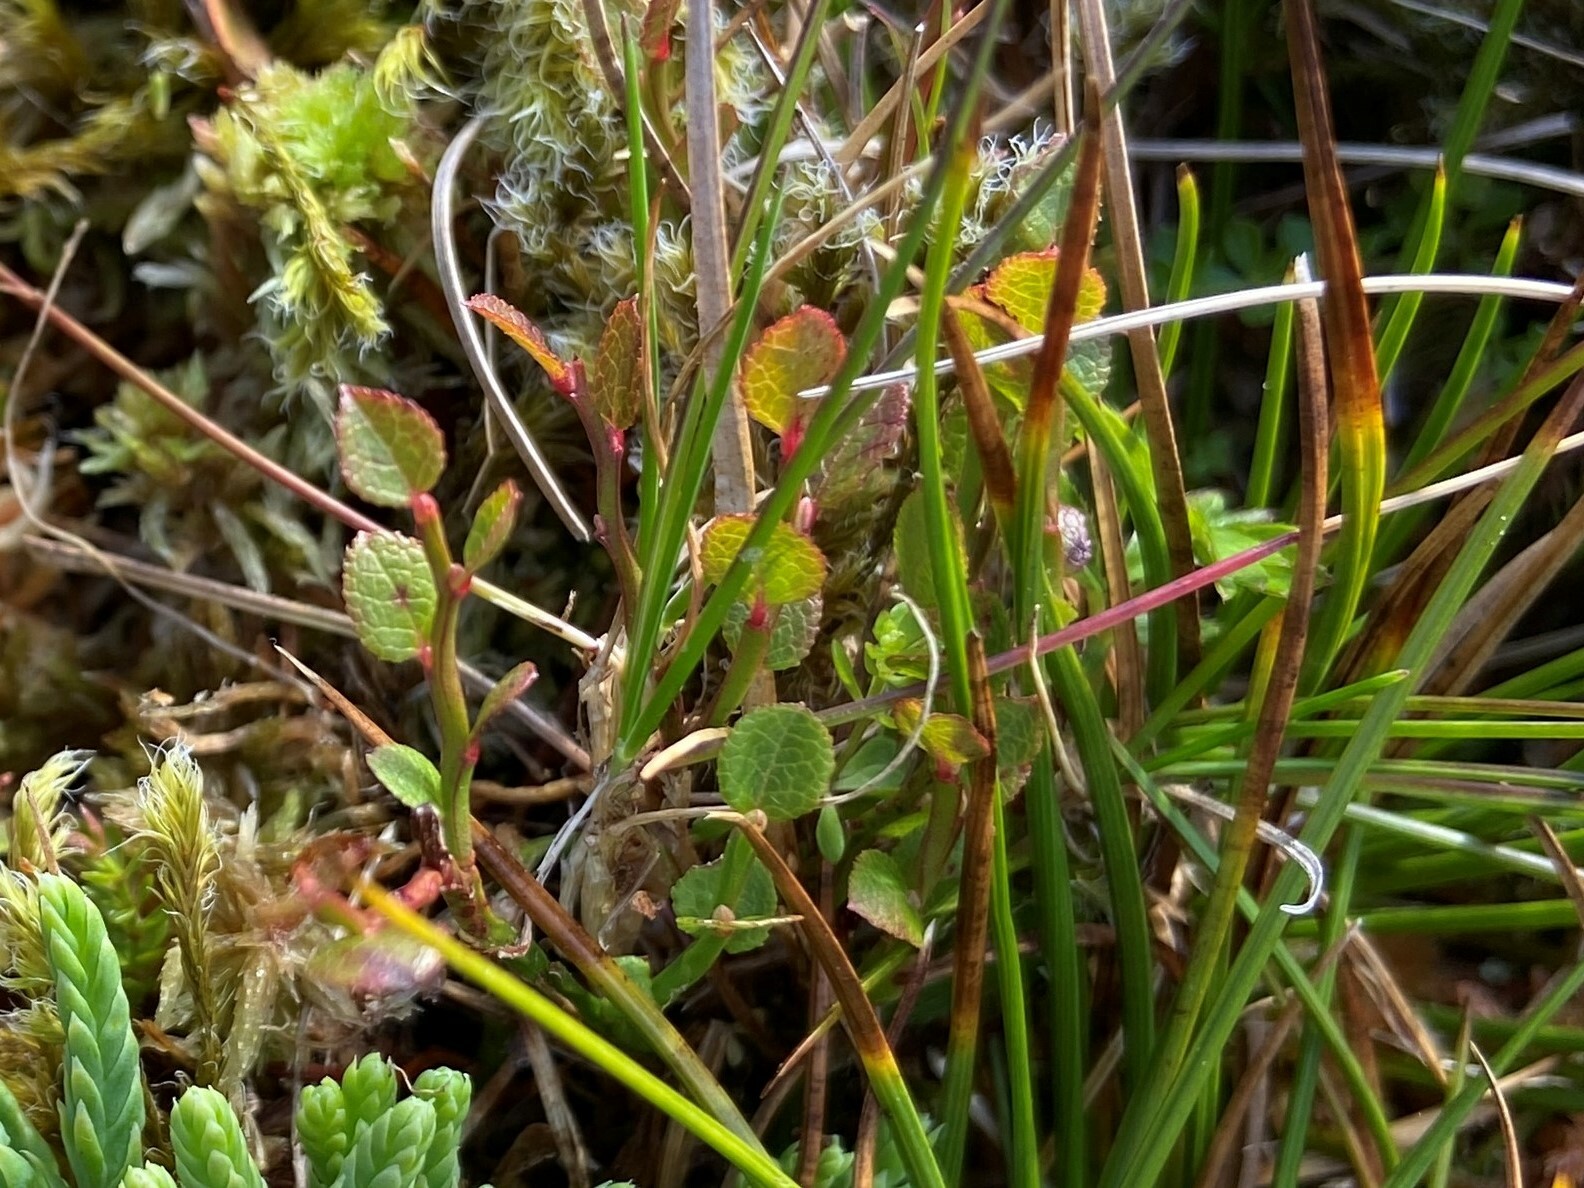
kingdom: Plantae
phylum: Tracheophyta
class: Magnoliopsida
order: Ericales
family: Ericaceae
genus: Vaccinium
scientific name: Vaccinium myrtillus
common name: Bilberry
